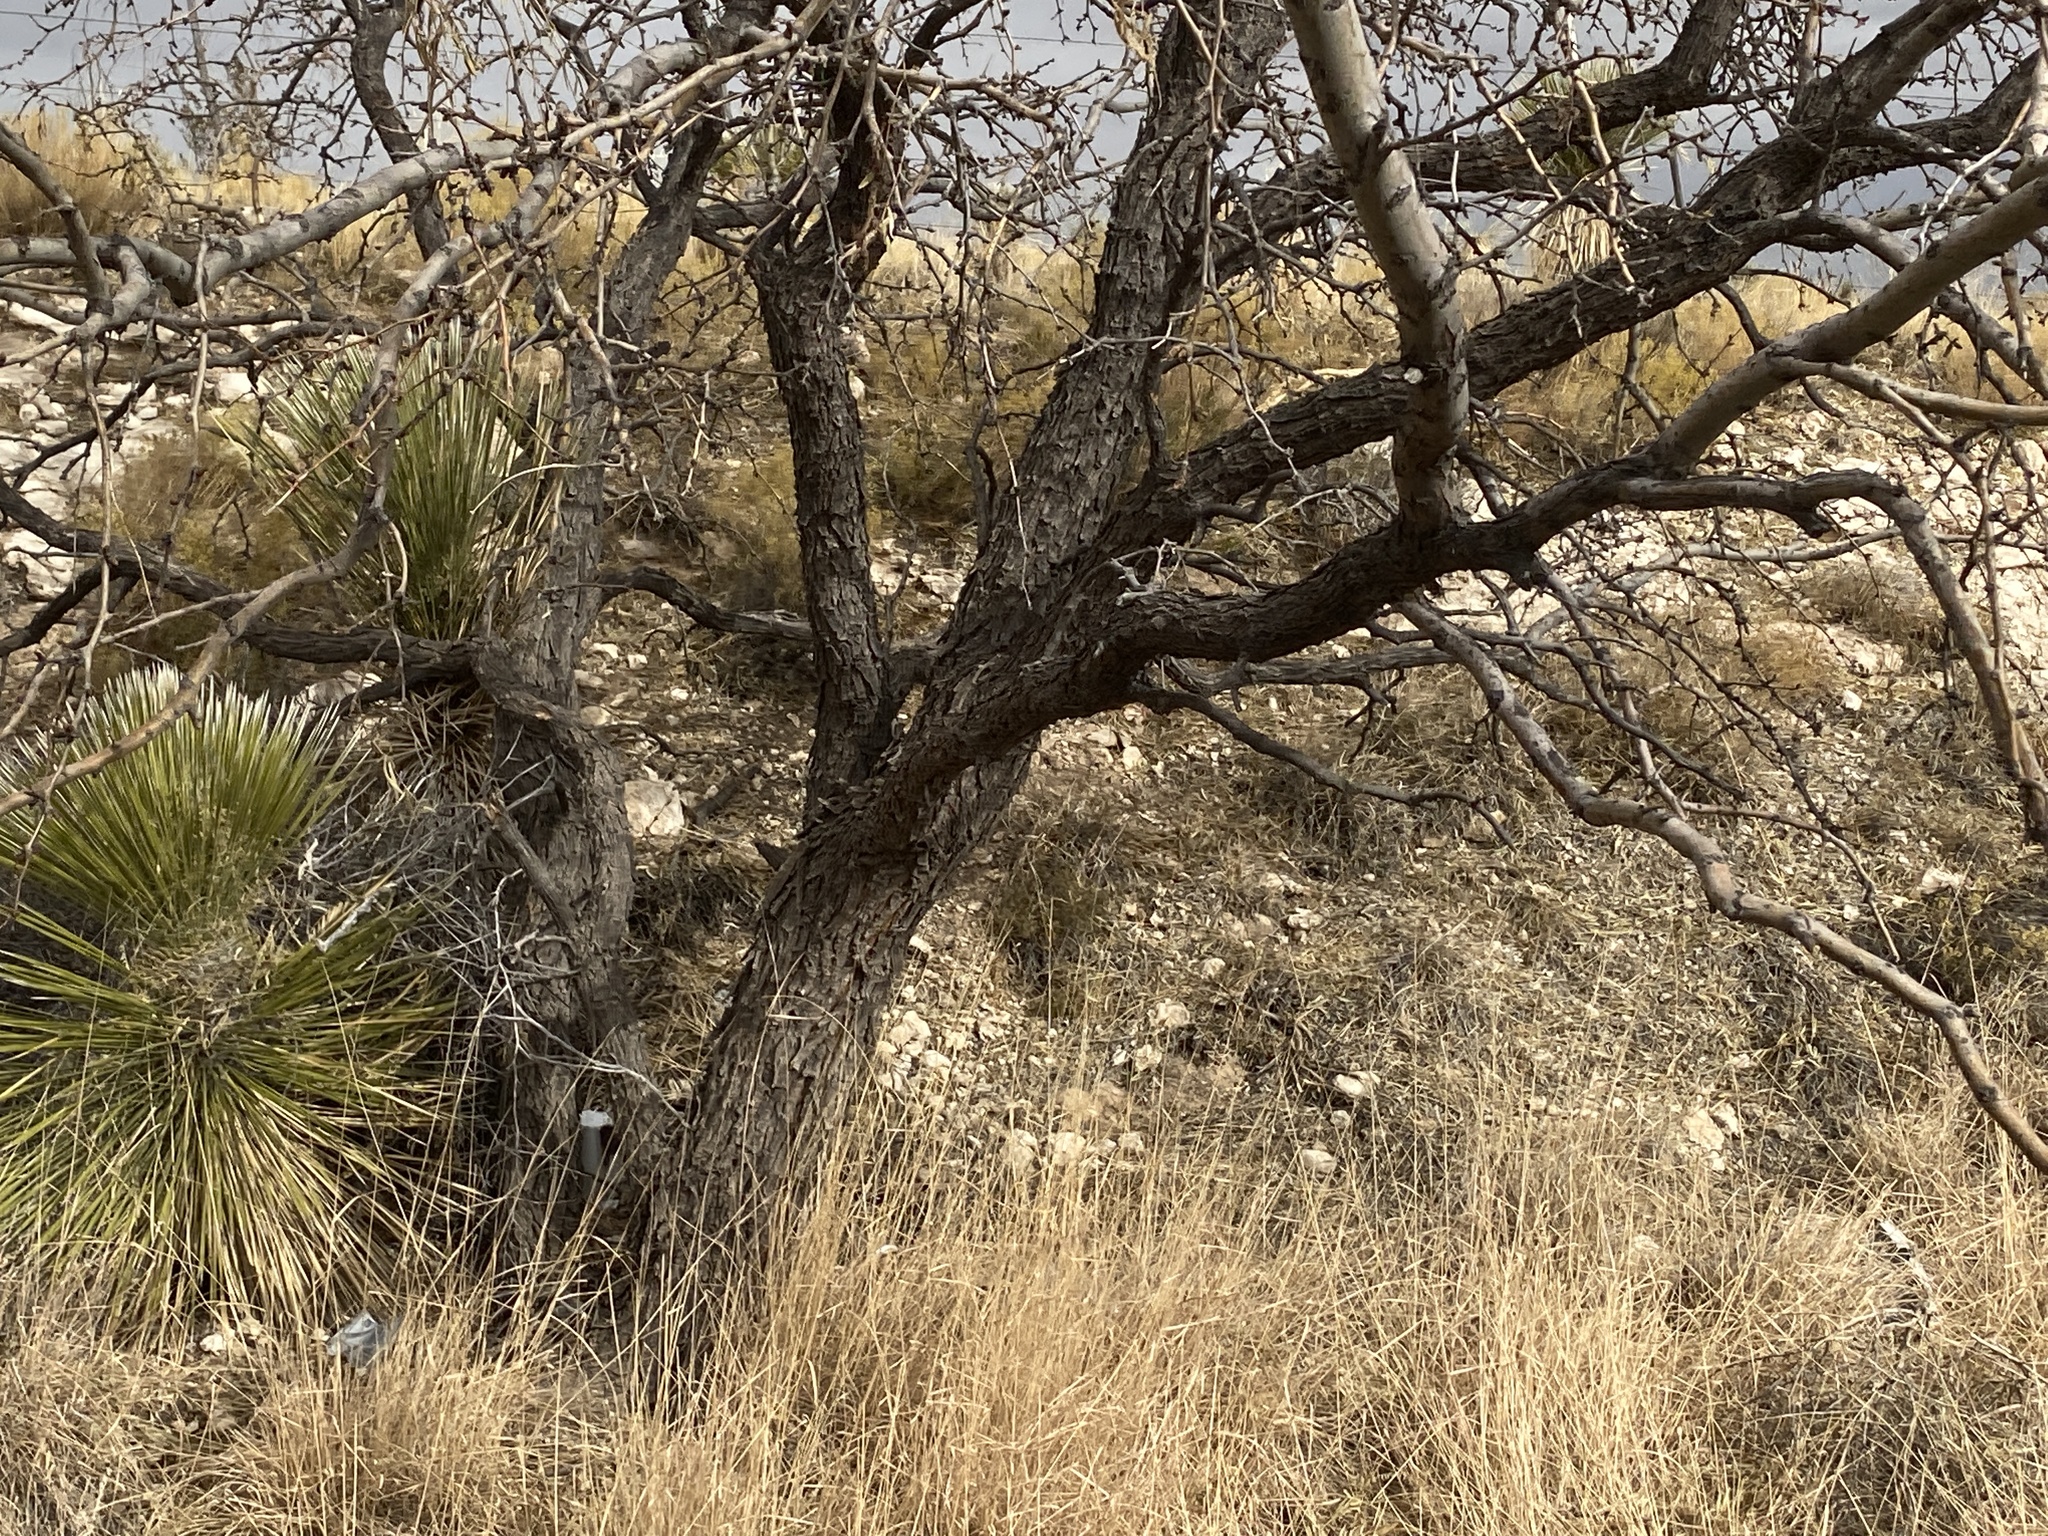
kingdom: Plantae
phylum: Tracheophyta
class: Magnoliopsida
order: Fabales
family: Fabaceae
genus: Prosopis
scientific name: Prosopis glandulosa
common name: Honey mesquite
